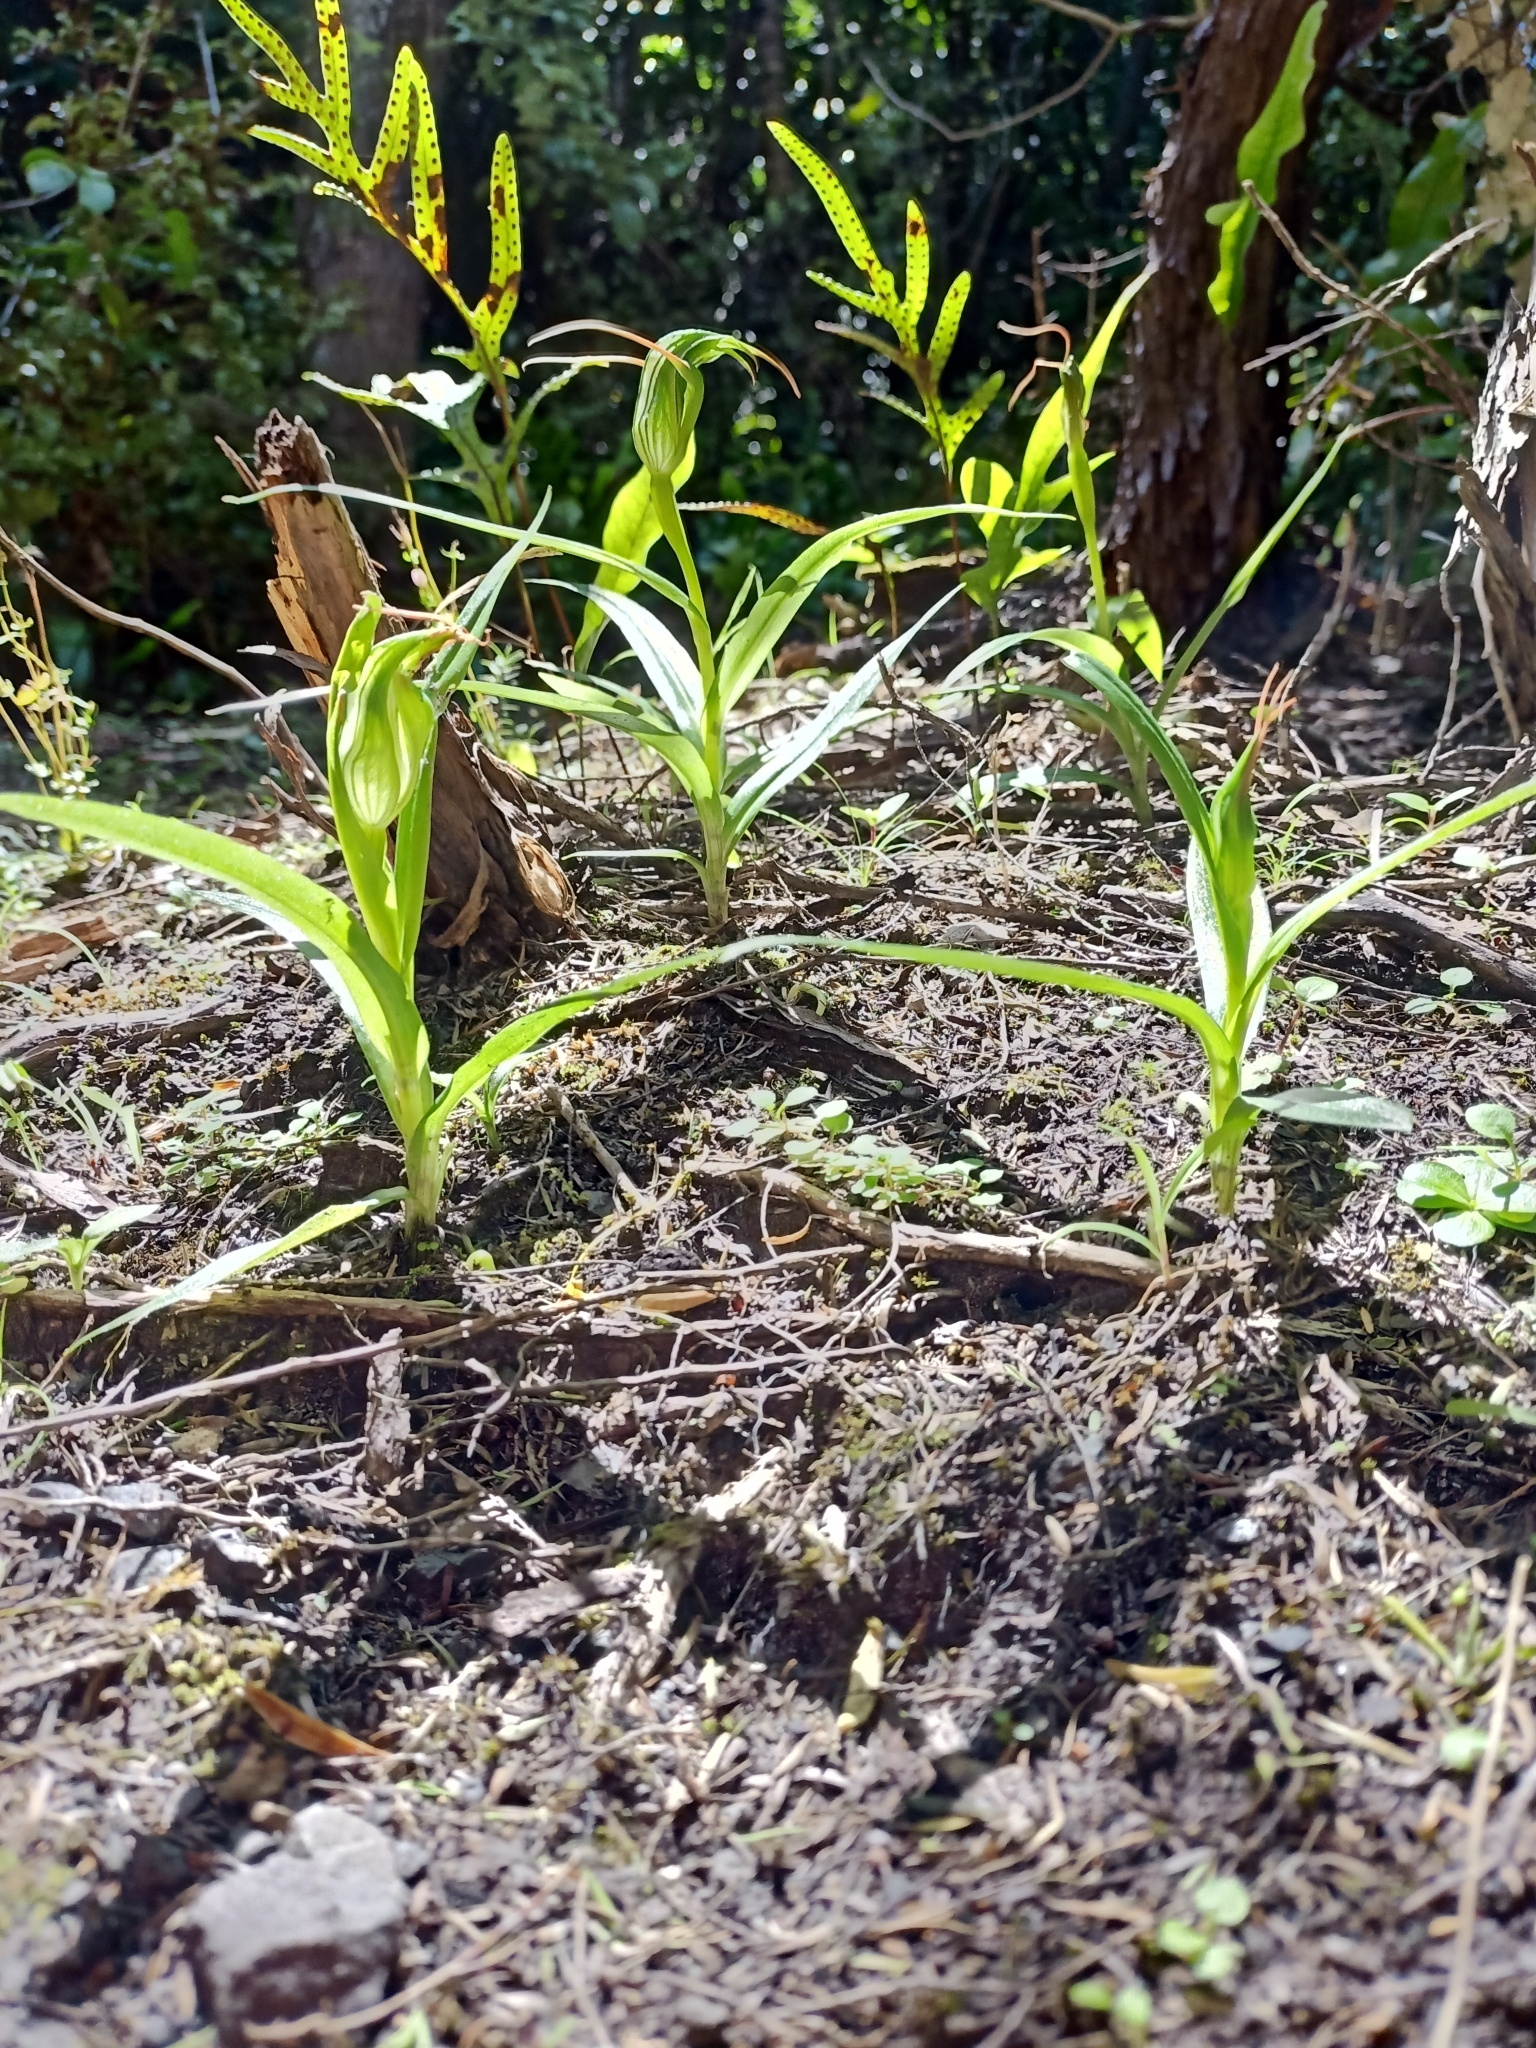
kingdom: Plantae
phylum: Tracheophyta
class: Liliopsida
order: Asparagales
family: Orchidaceae
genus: Pterostylis
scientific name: Pterostylis banksii
